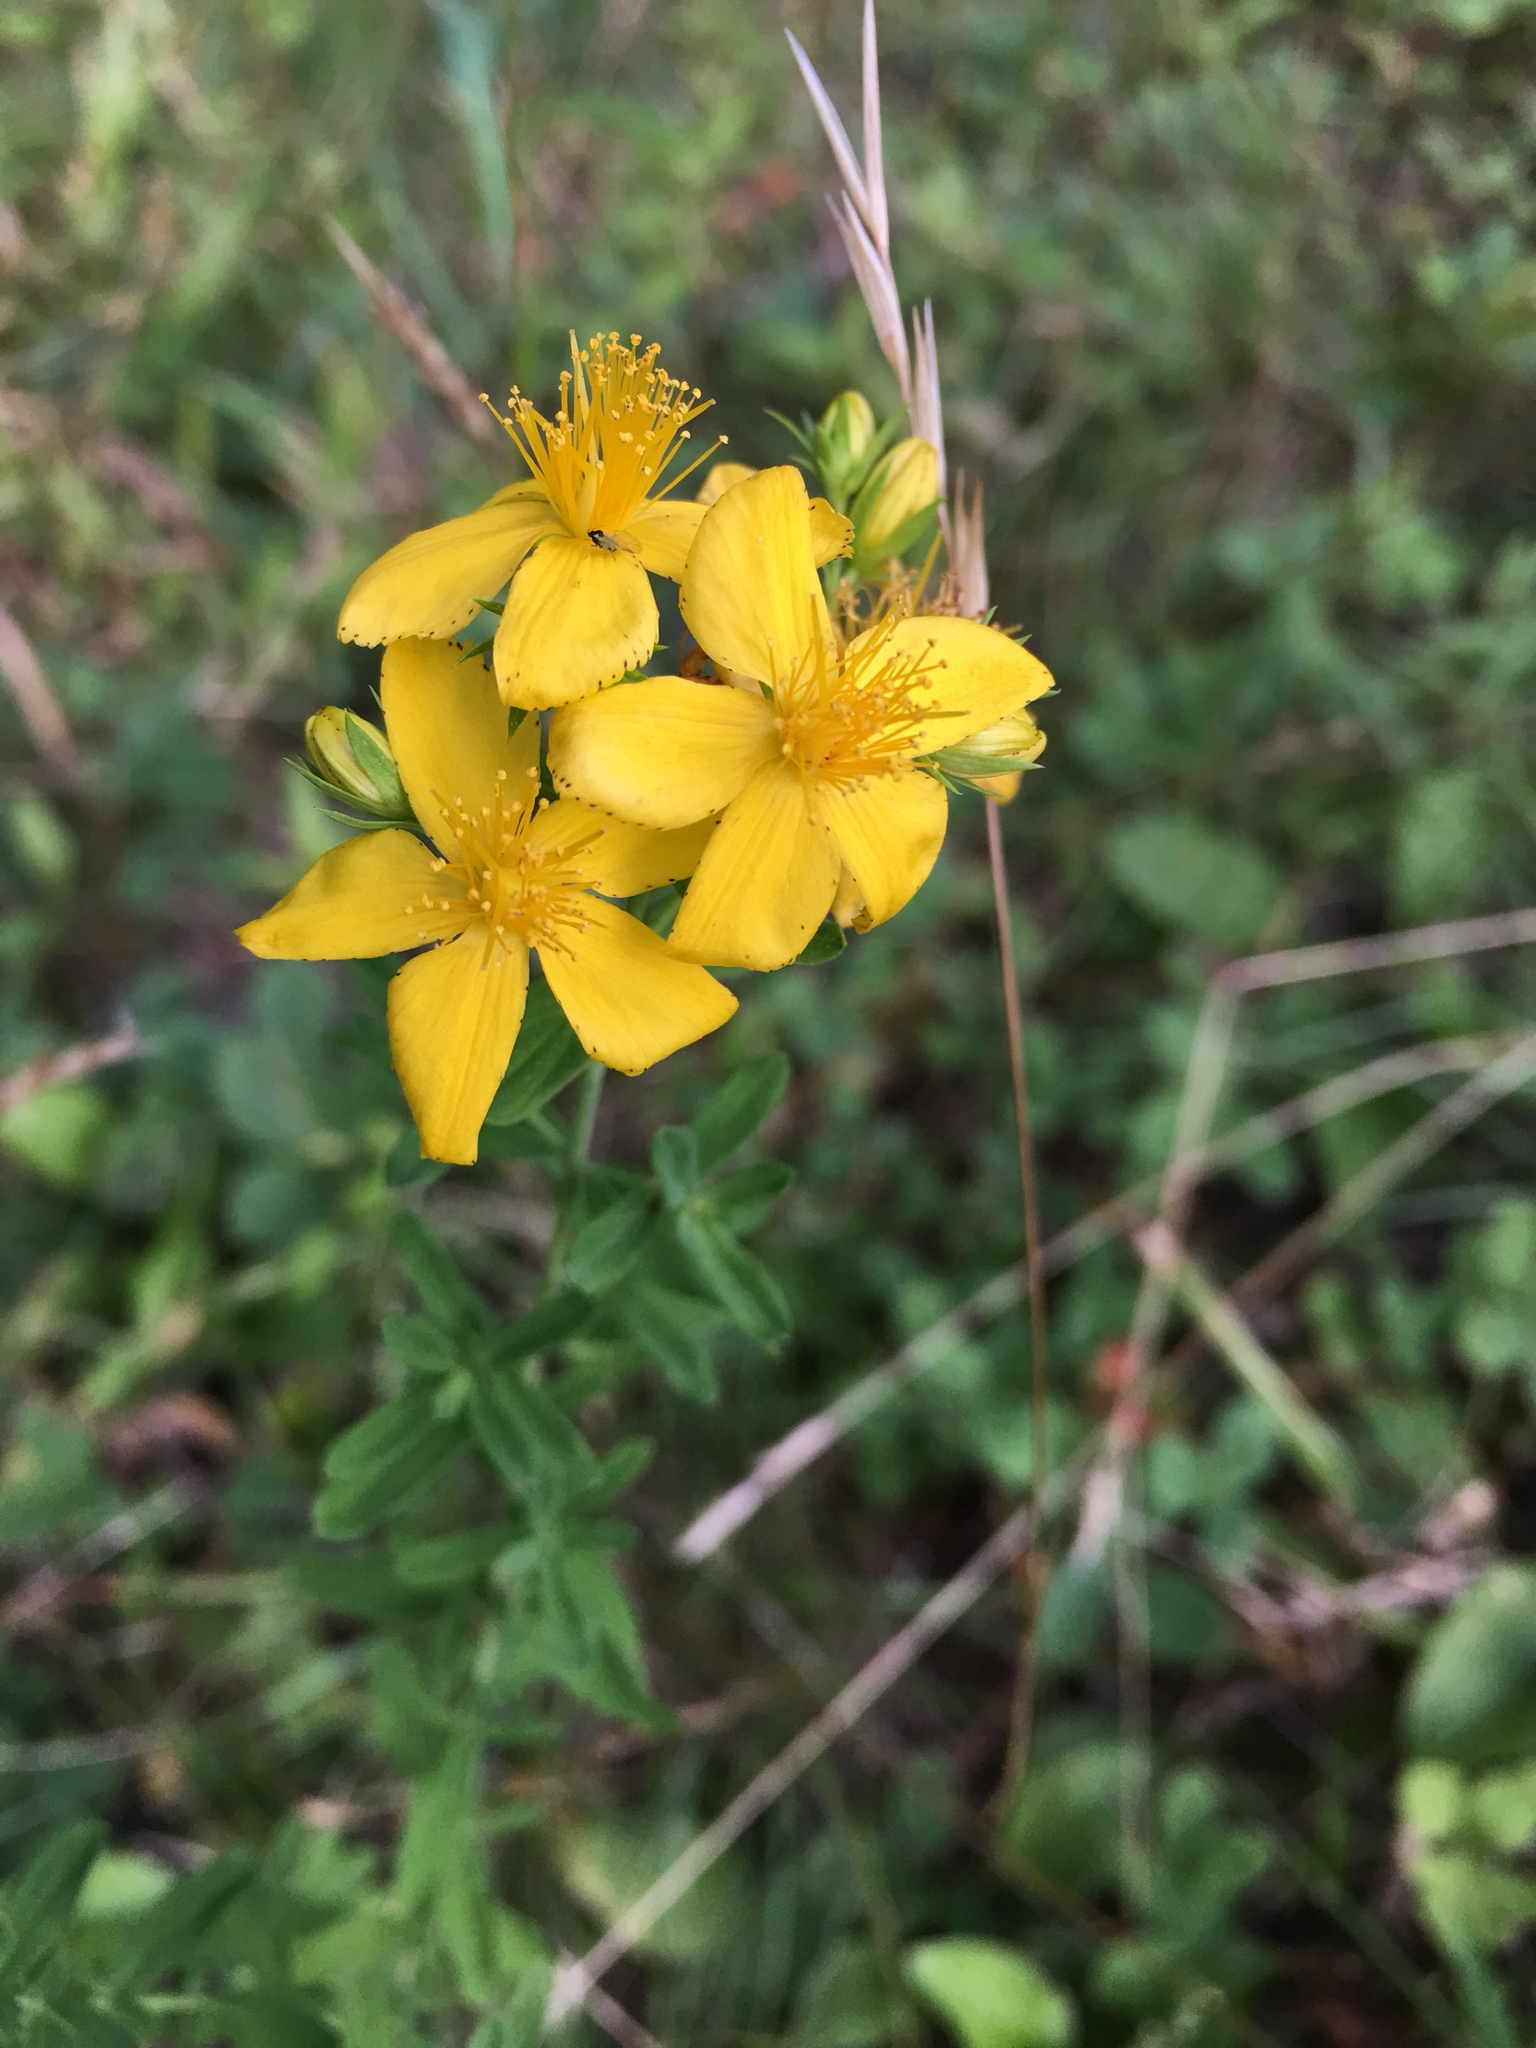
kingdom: Plantae
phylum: Tracheophyta
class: Magnoliopsida
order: Malpighiales
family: Hypericaceae
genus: Hypericum
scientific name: Hypericum perforatum
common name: Common st. johnswort
